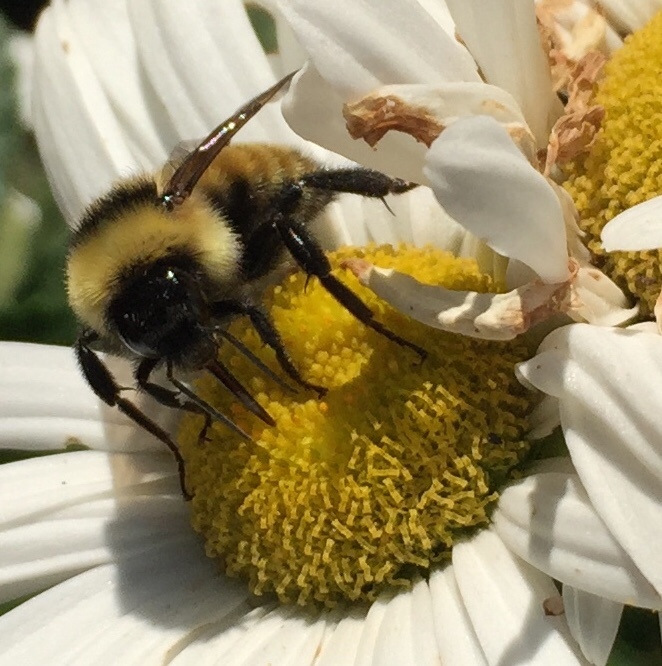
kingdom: Animalia
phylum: Arthropoda
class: Insecta
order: Hymenoptera
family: Apidae
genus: Bombus
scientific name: Bombus fervidus
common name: Yellow bumble bee
